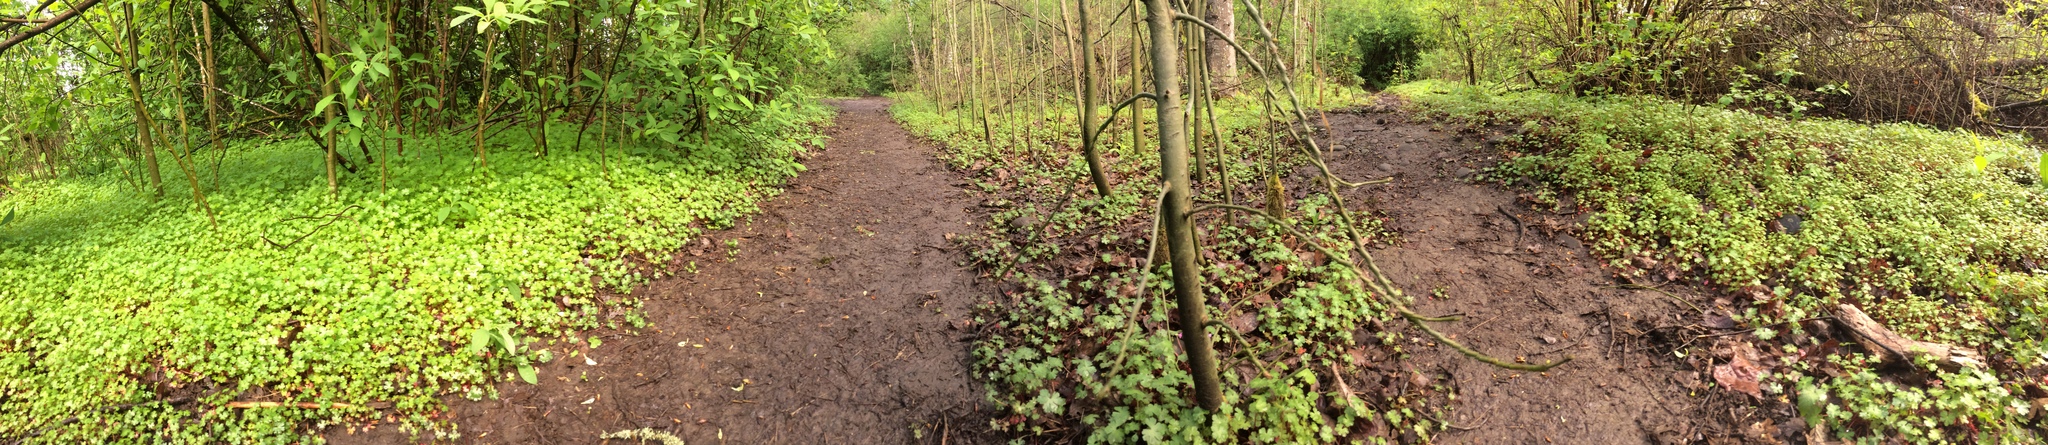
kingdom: Plantae
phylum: Tracheophyta
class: Magnoliopsida
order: Geraniales
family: Geraniaceae
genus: Geranium
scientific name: Geranium lucidum
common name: Shining crane's-bill
